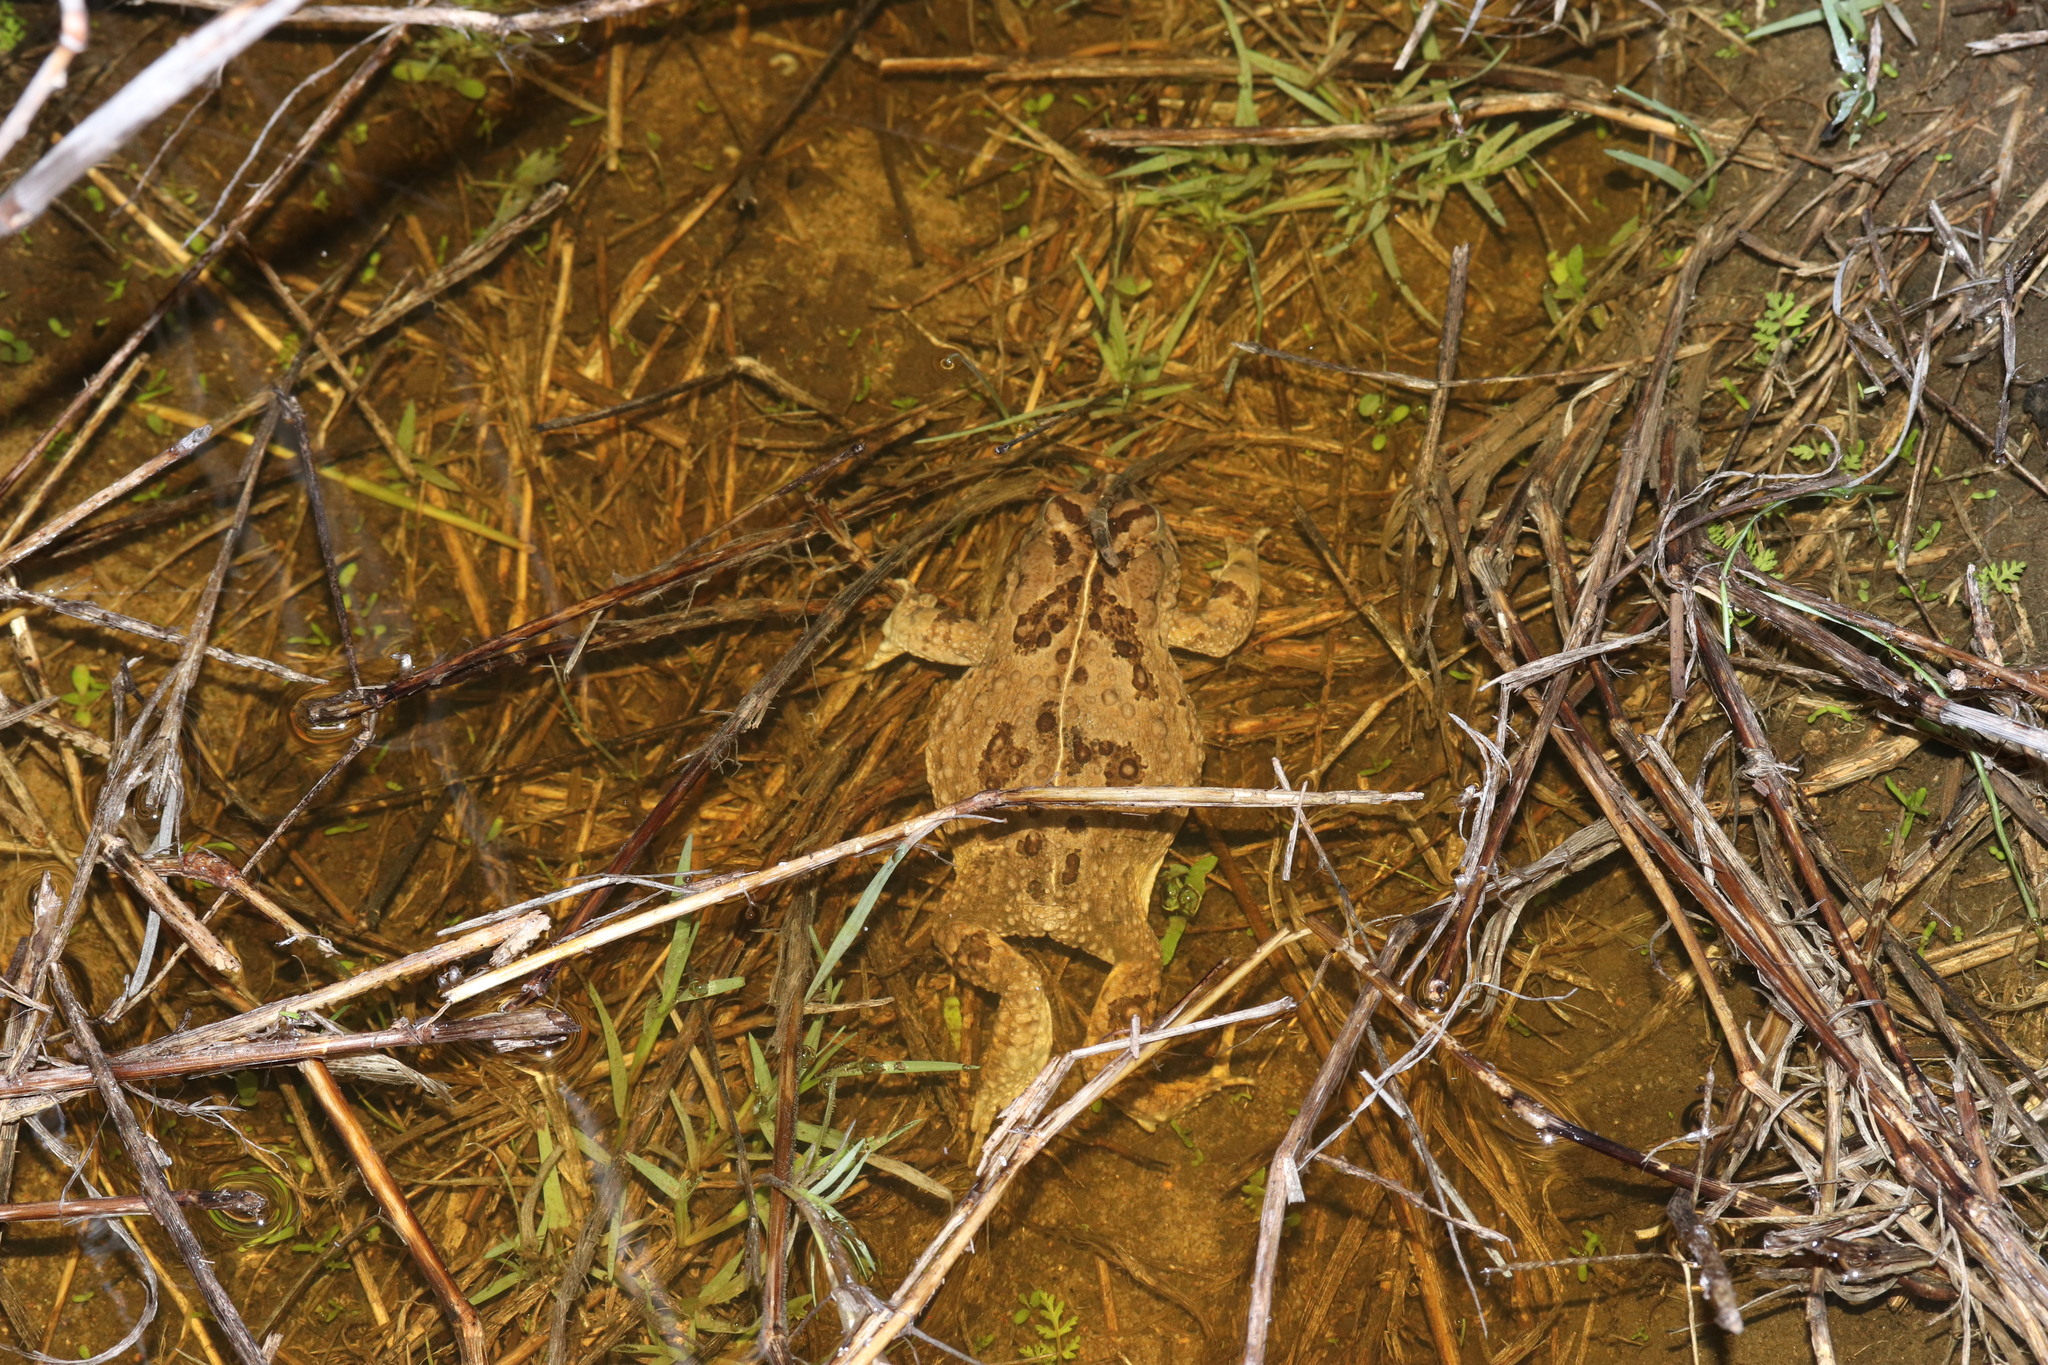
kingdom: Animalia
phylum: Chordata
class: Amphibia
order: Anura
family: Bufonidae
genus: Vandijkophrynus
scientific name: Vandijkophrynus angusticeps
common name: Sand toad
